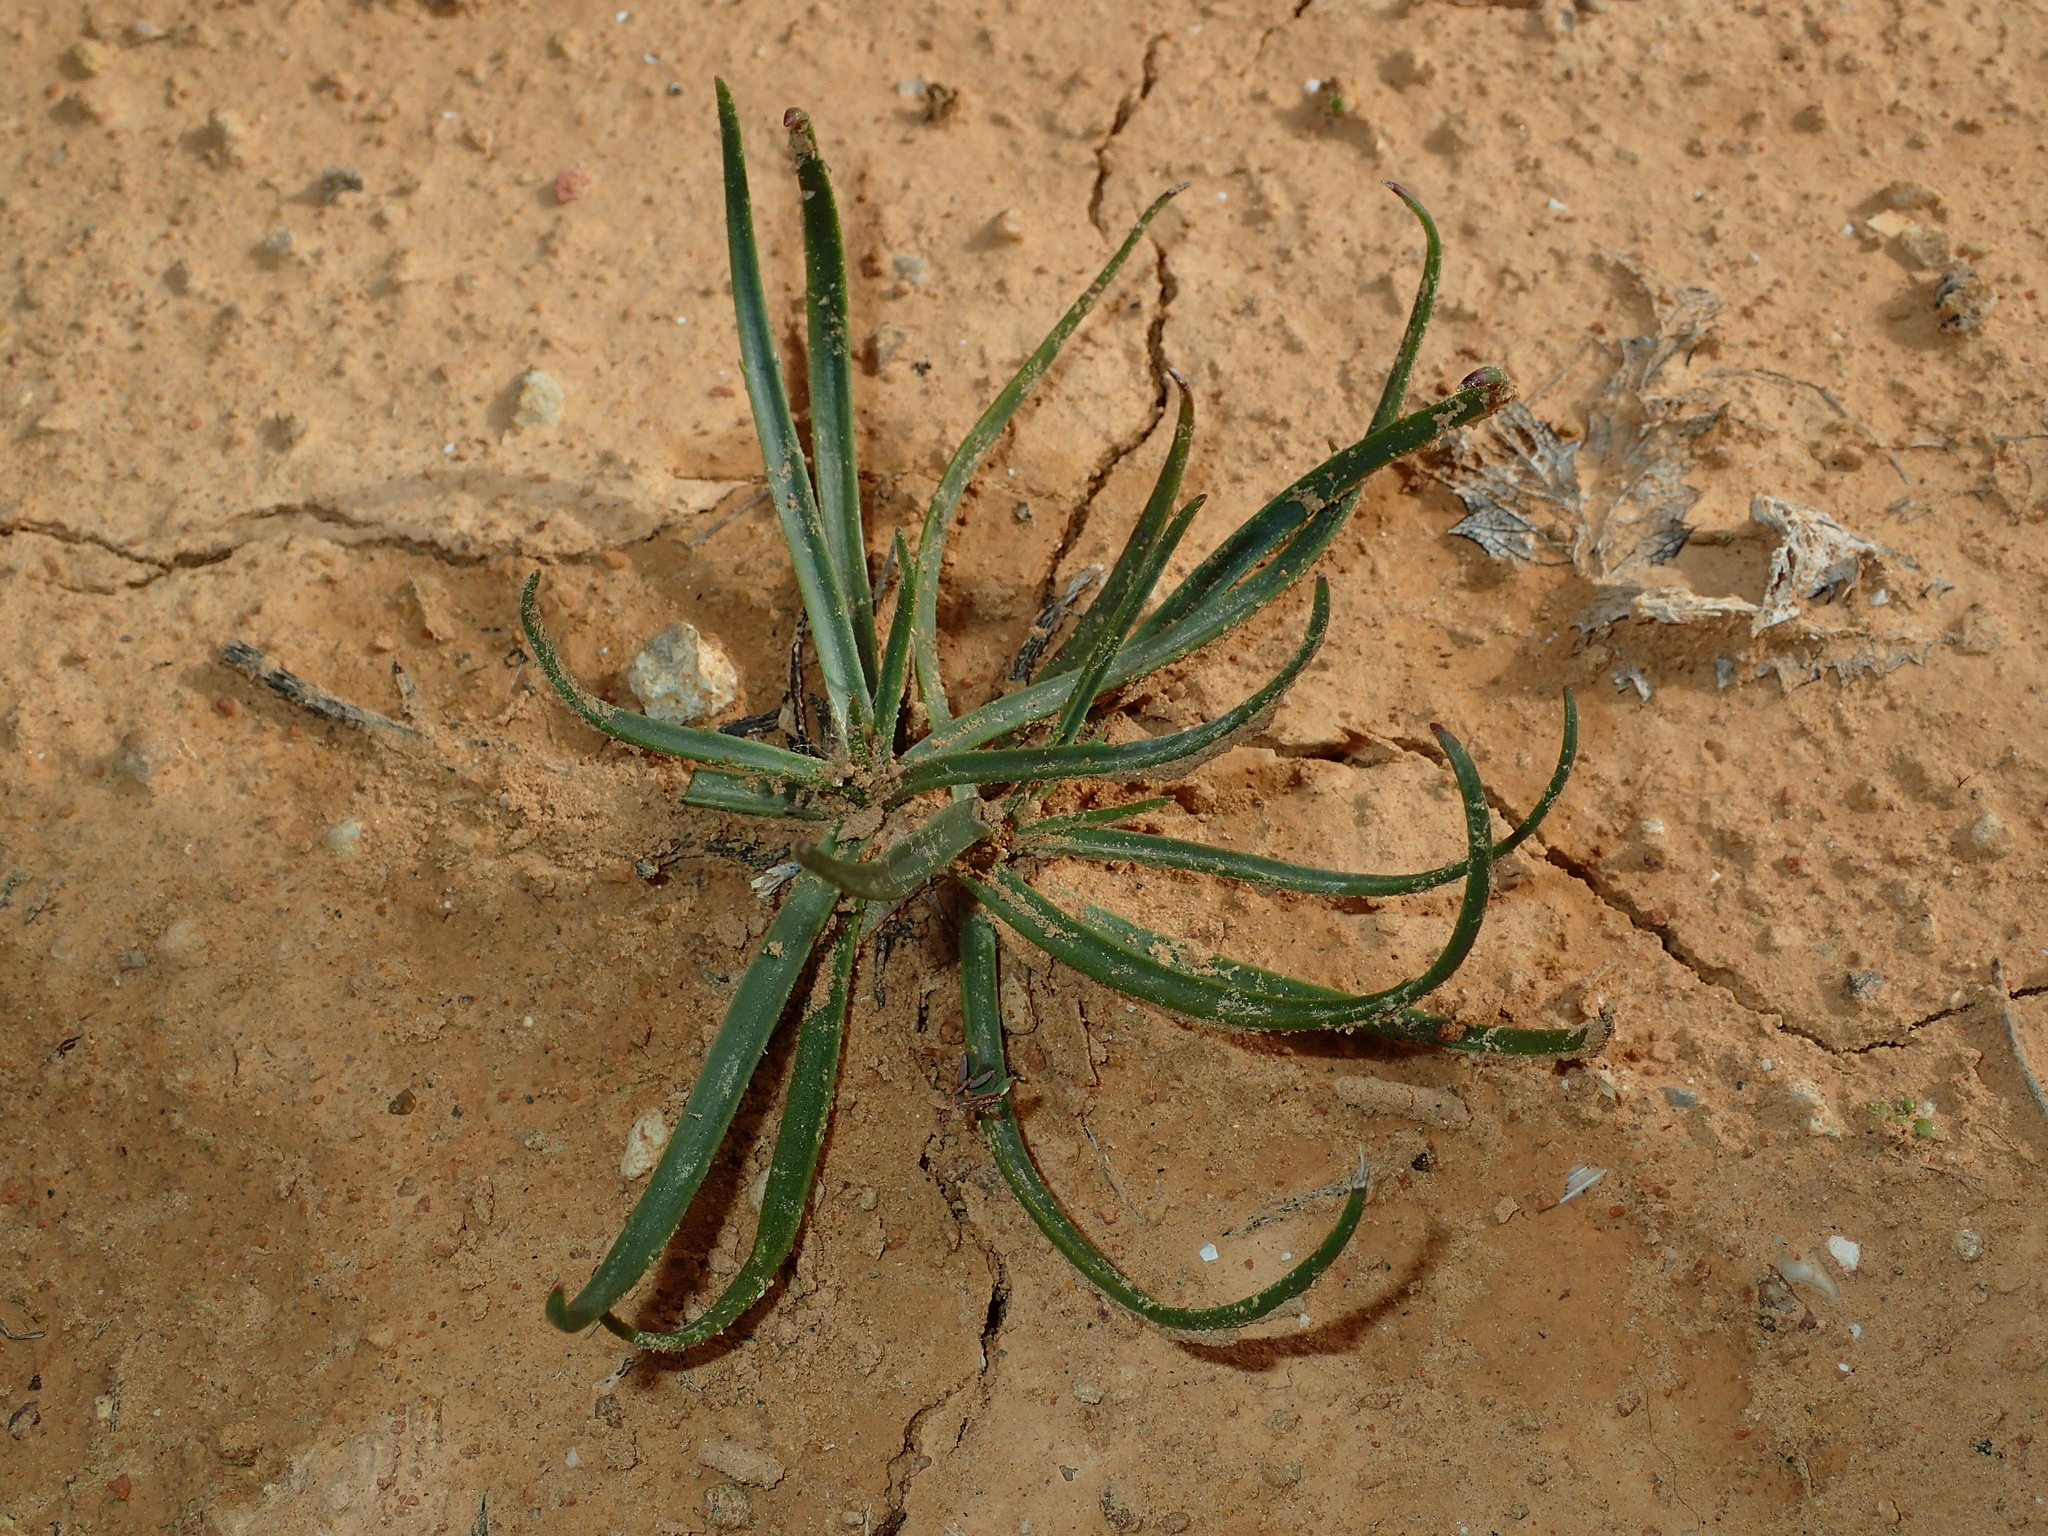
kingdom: Plantae
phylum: Tracheophyta
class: Magnoliopsida
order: Lamiales
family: Plantaginaceae
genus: Plantago
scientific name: Plantago
